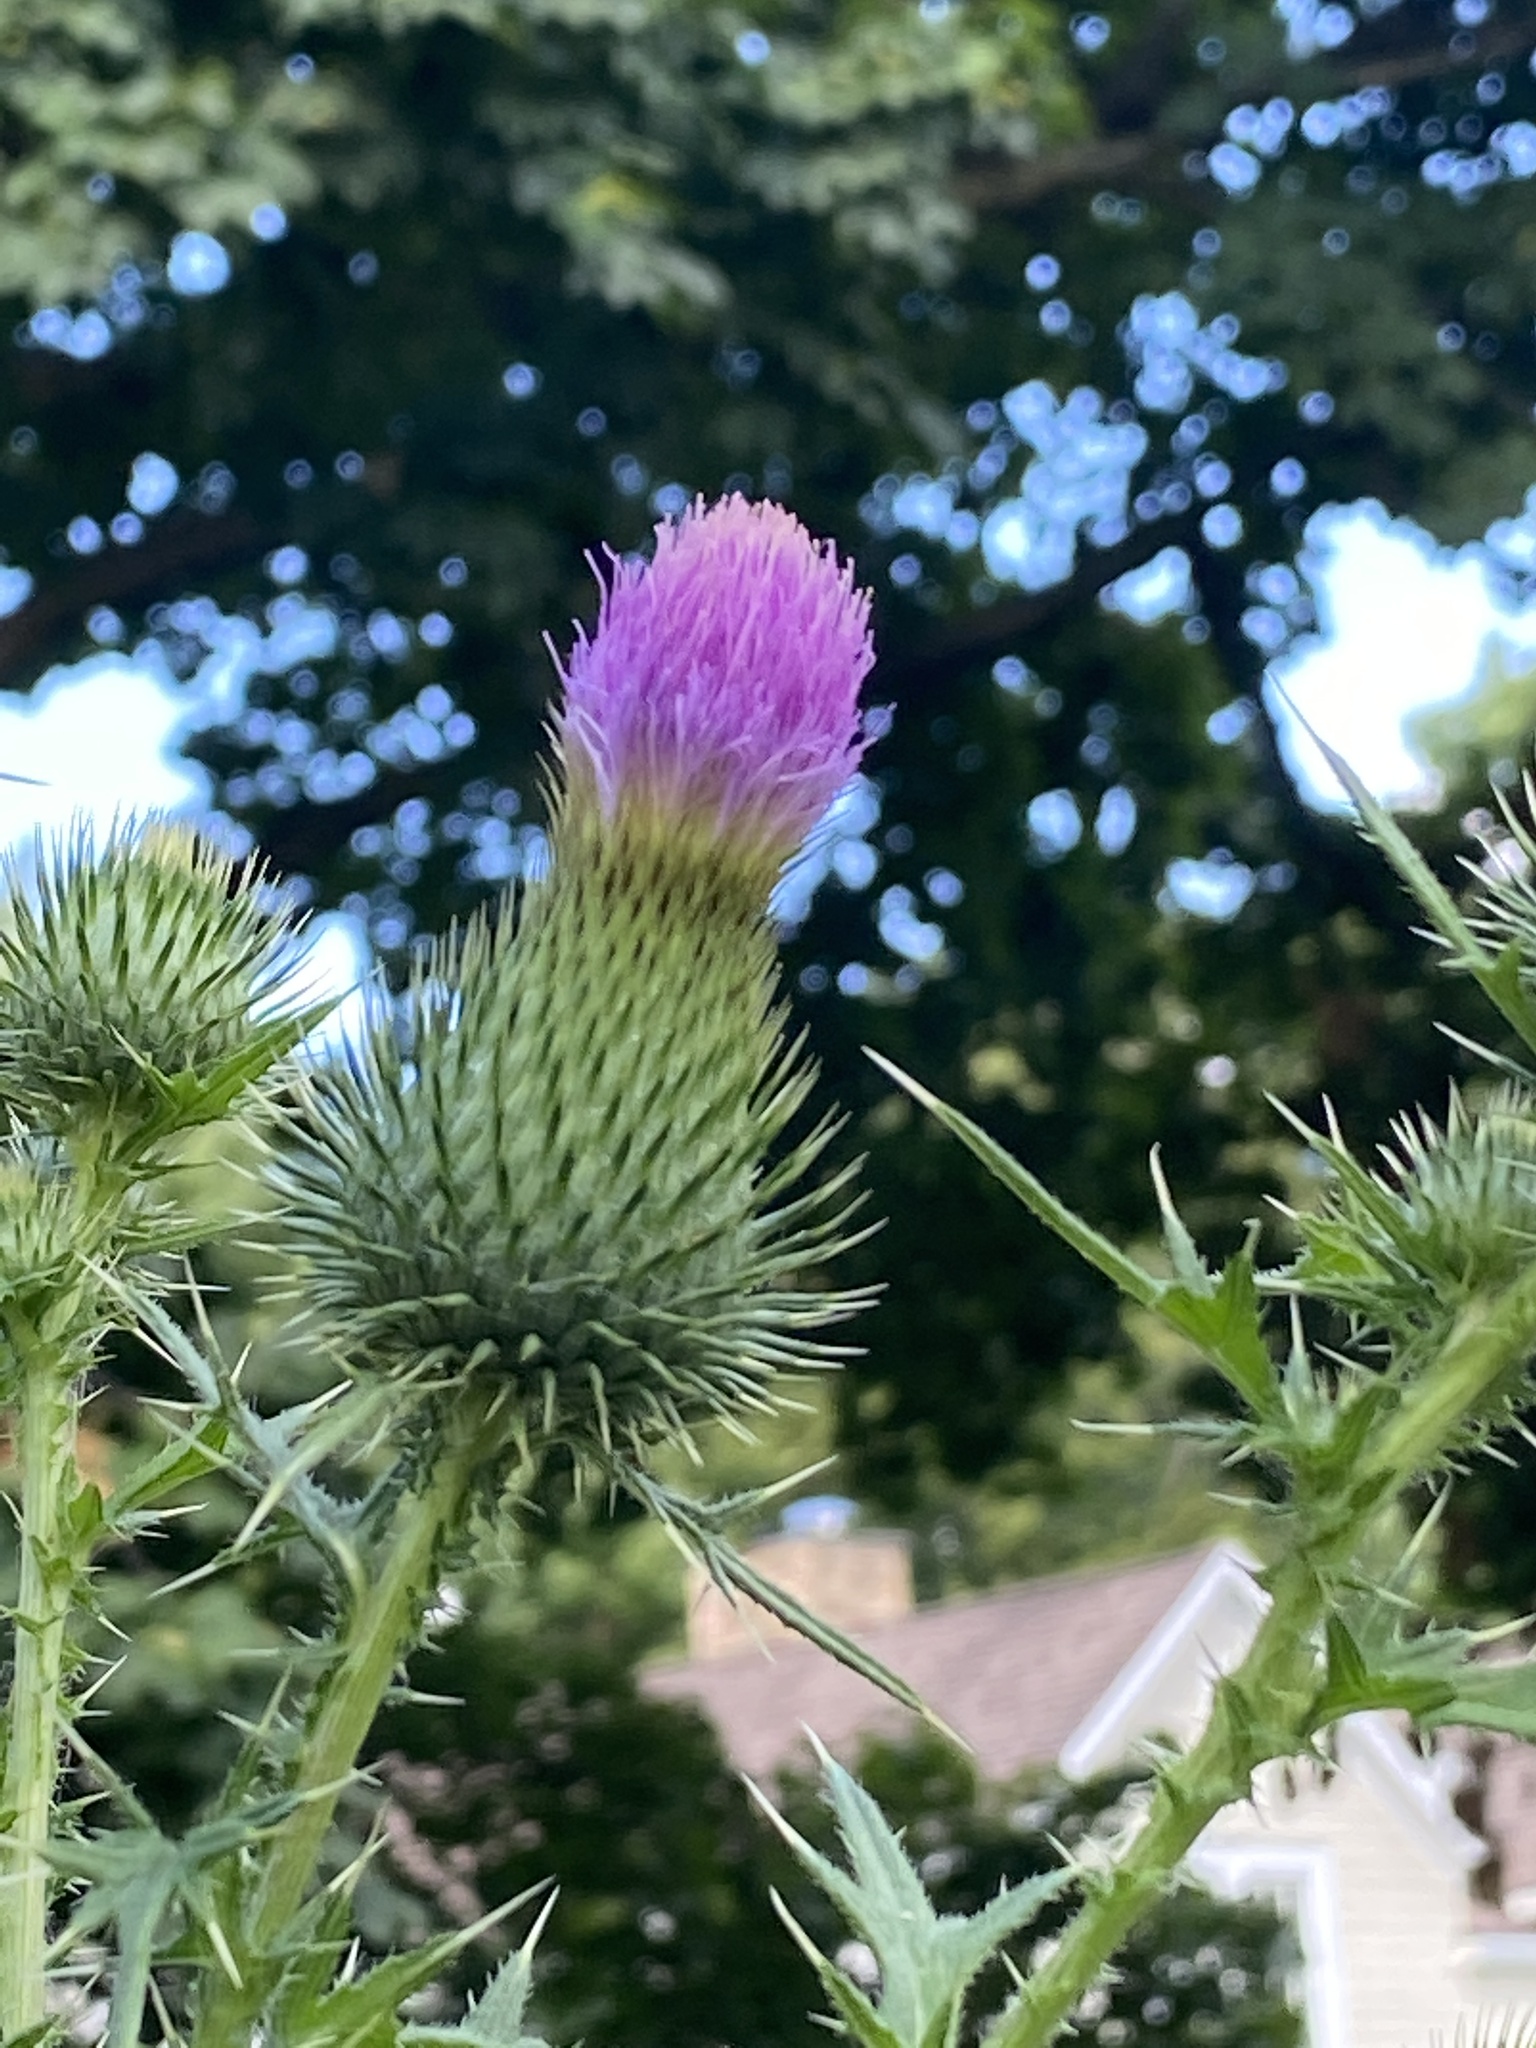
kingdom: Plantae
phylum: Tracheophyta
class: Magnoliopsida
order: Asterales
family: Asteraceae
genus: Cirsium
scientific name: Cirsium vulgare
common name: Bull thistle
